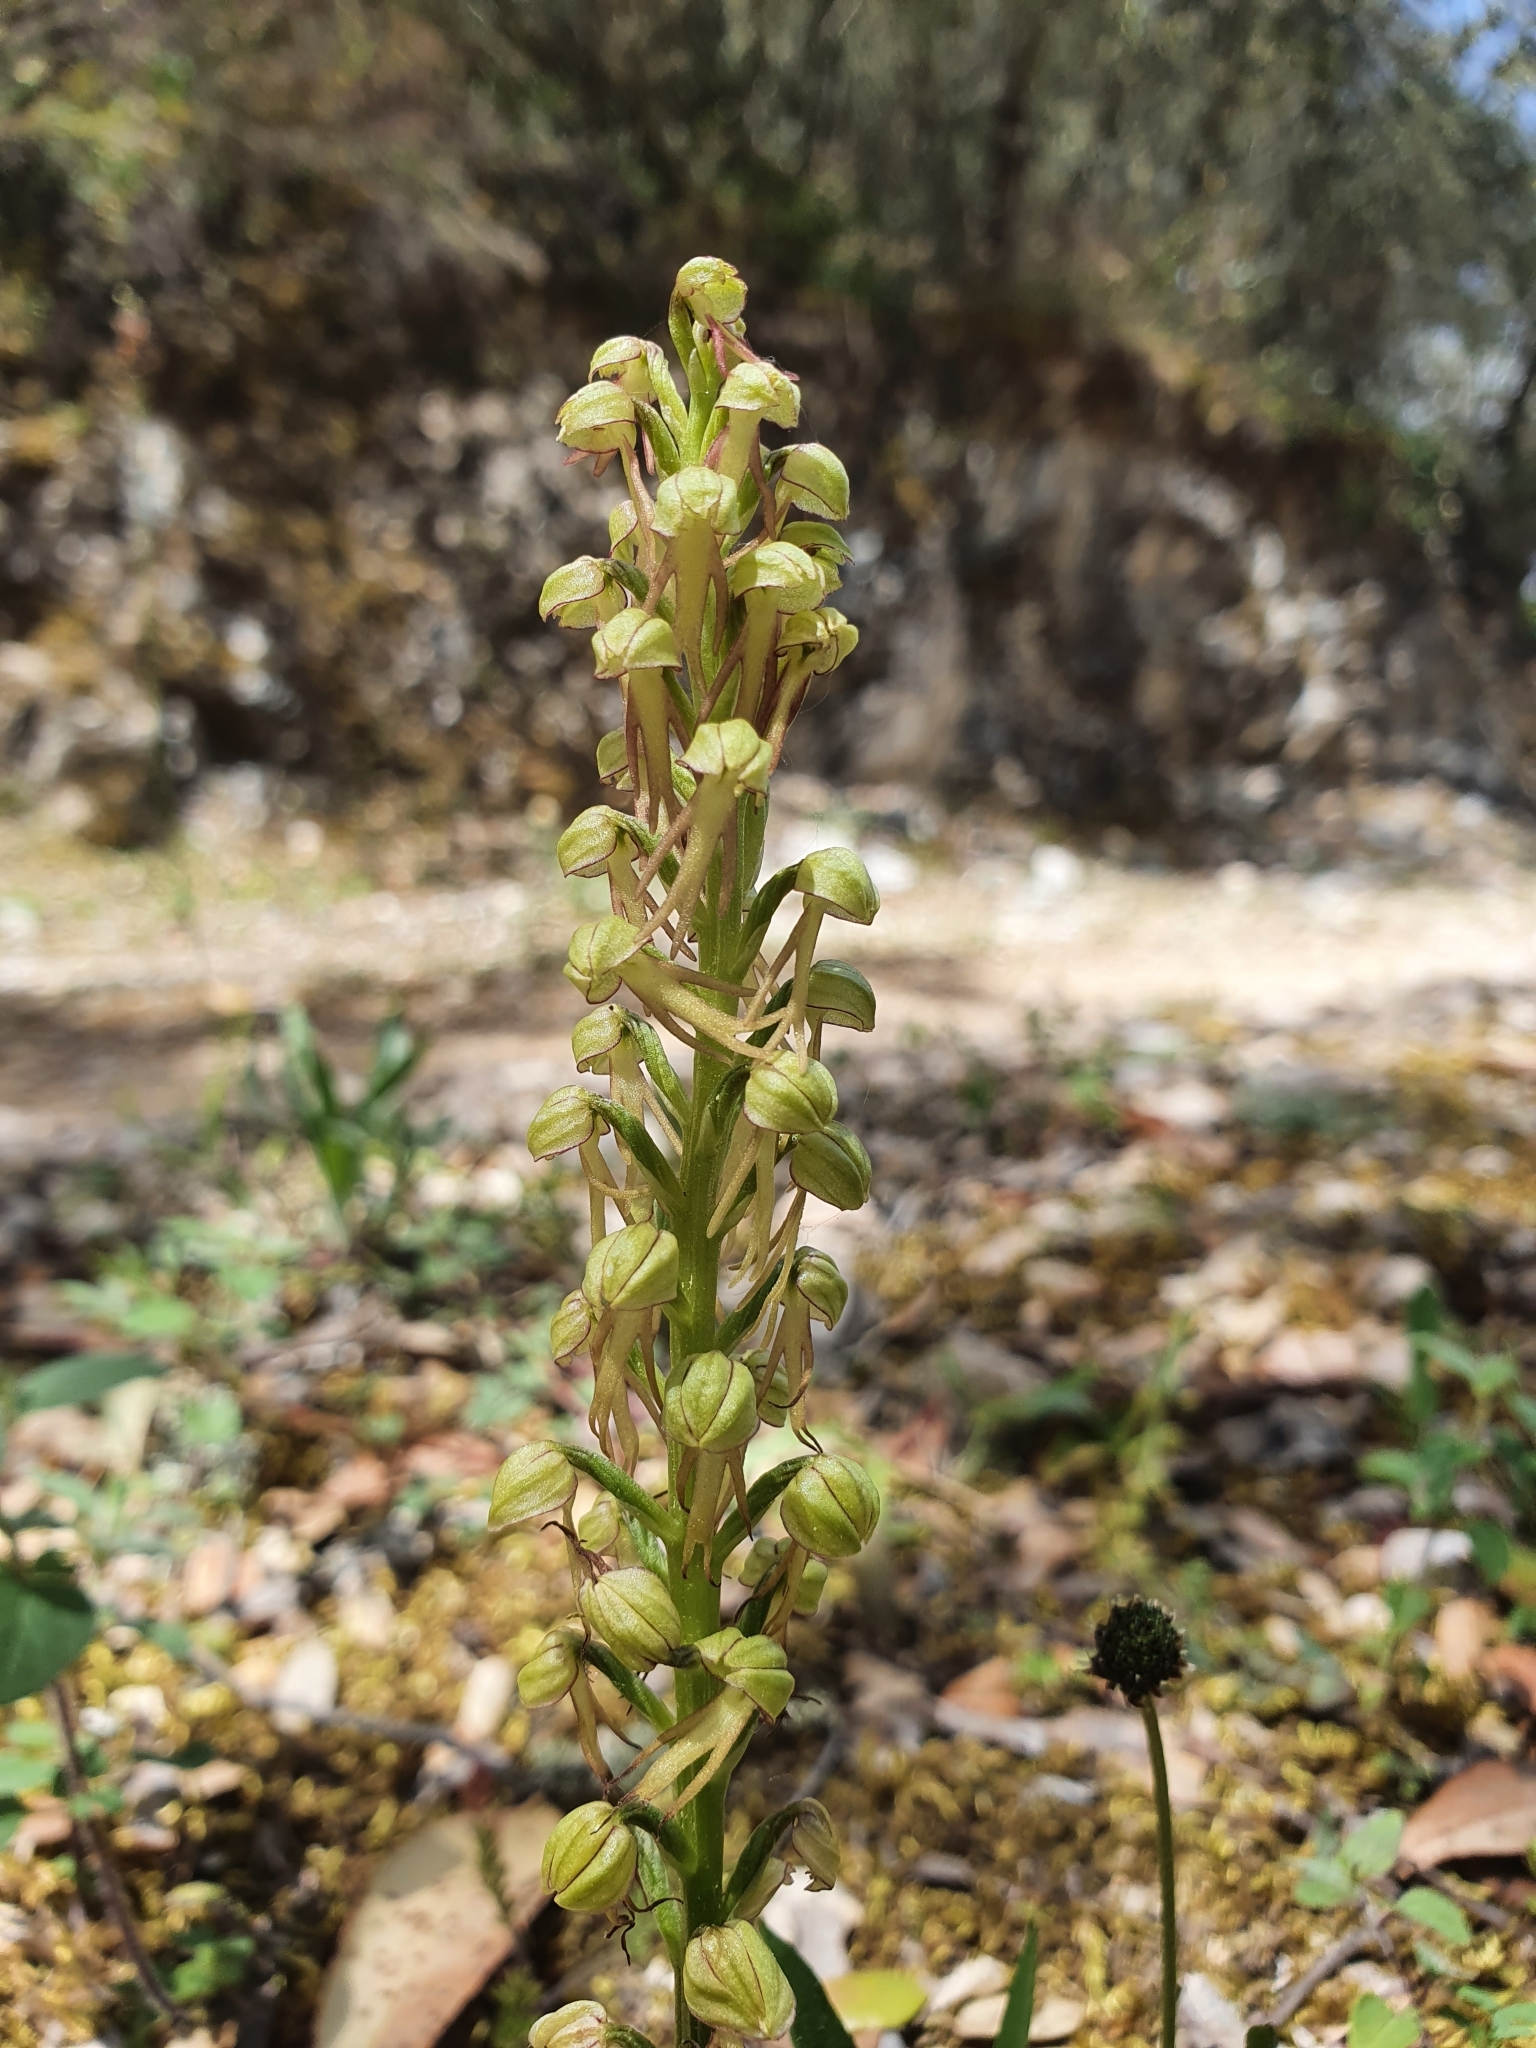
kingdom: Plantae
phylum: Tracheophyta
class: Liliopsida
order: Asparagales
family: Orchidaceae
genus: Orchis
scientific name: Orchis anthropophora
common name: Man orchid
